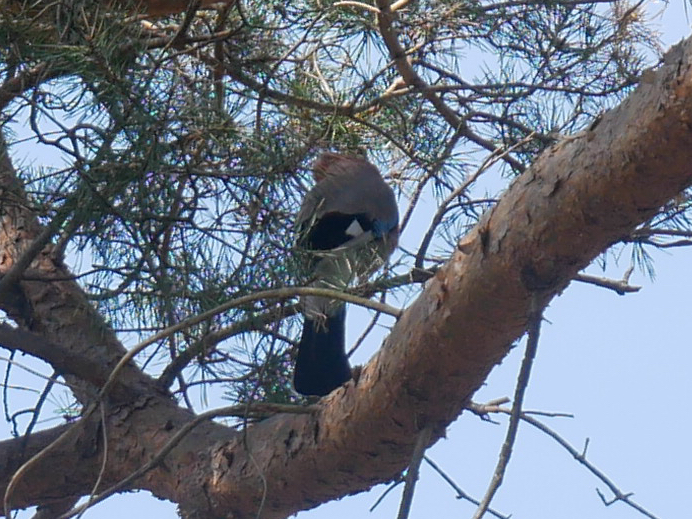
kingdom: Animalia
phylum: Chordata
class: Aves
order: Passeriformes
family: Corvidae
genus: Garrulus
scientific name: Garrulus glandarius
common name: Eurasian jay
